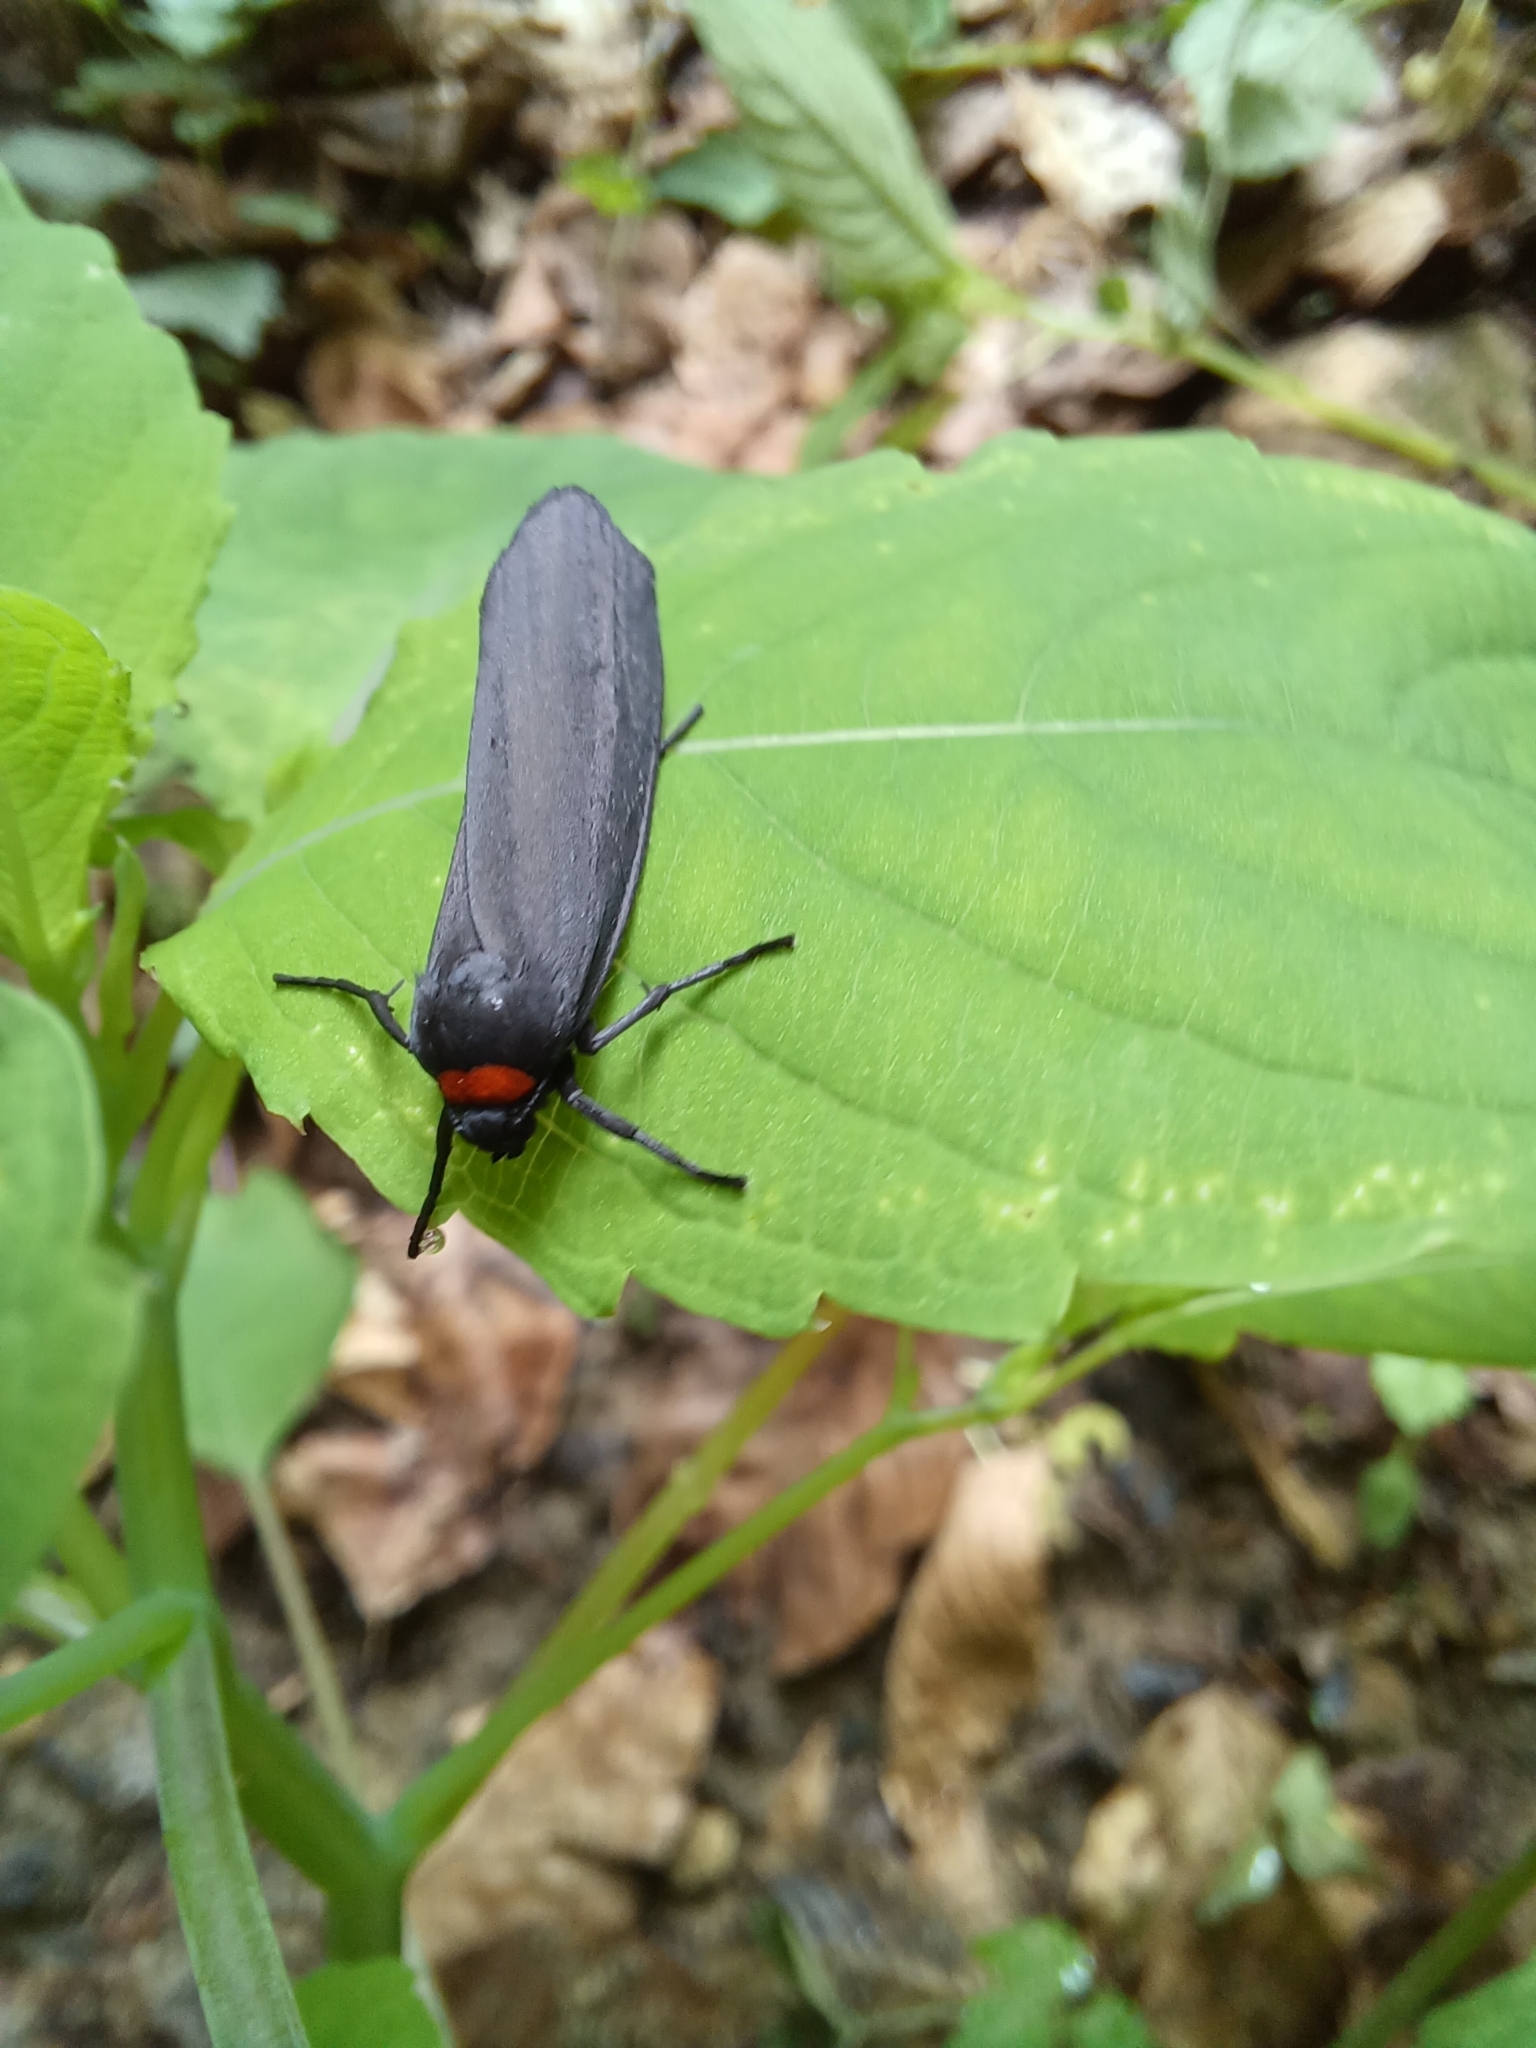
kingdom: Animalia
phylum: Arthropoda
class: Insecta
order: Lepidoptera
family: Erebidae
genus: Atolmis
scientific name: Atolmis rubricollis
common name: Red-necked footman
